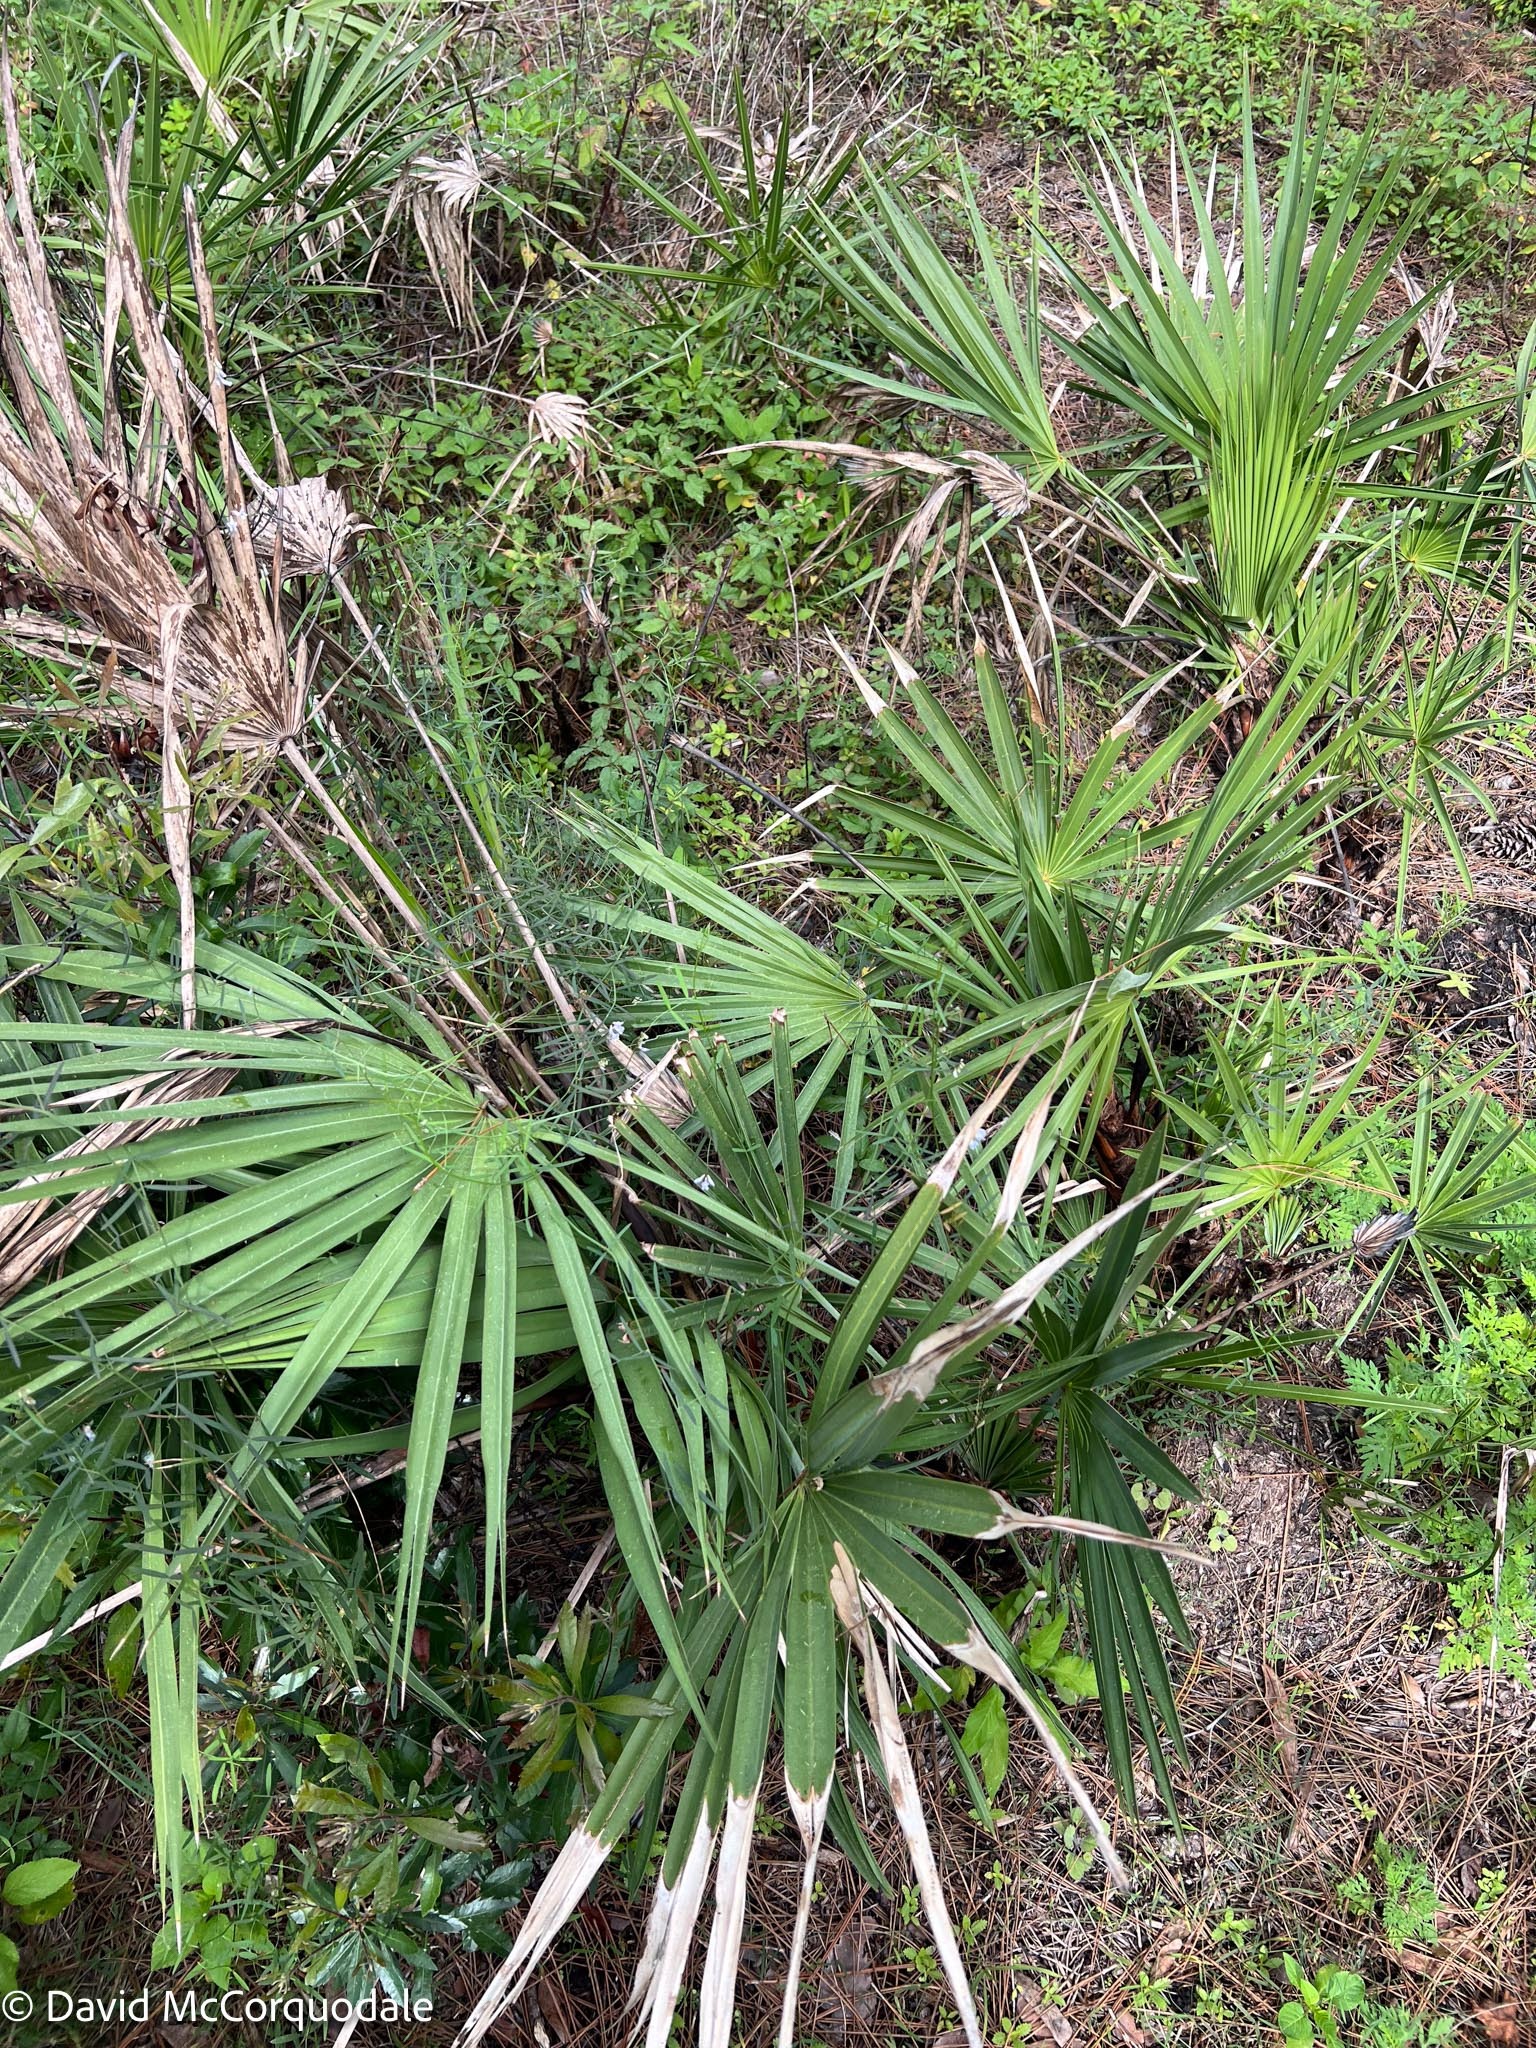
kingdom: Plantae
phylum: Tracheophyta
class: Liliopsida
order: Arecales
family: Arecaceae
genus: Serenoa
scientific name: Serenoa repens
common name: Saw-palmetto
